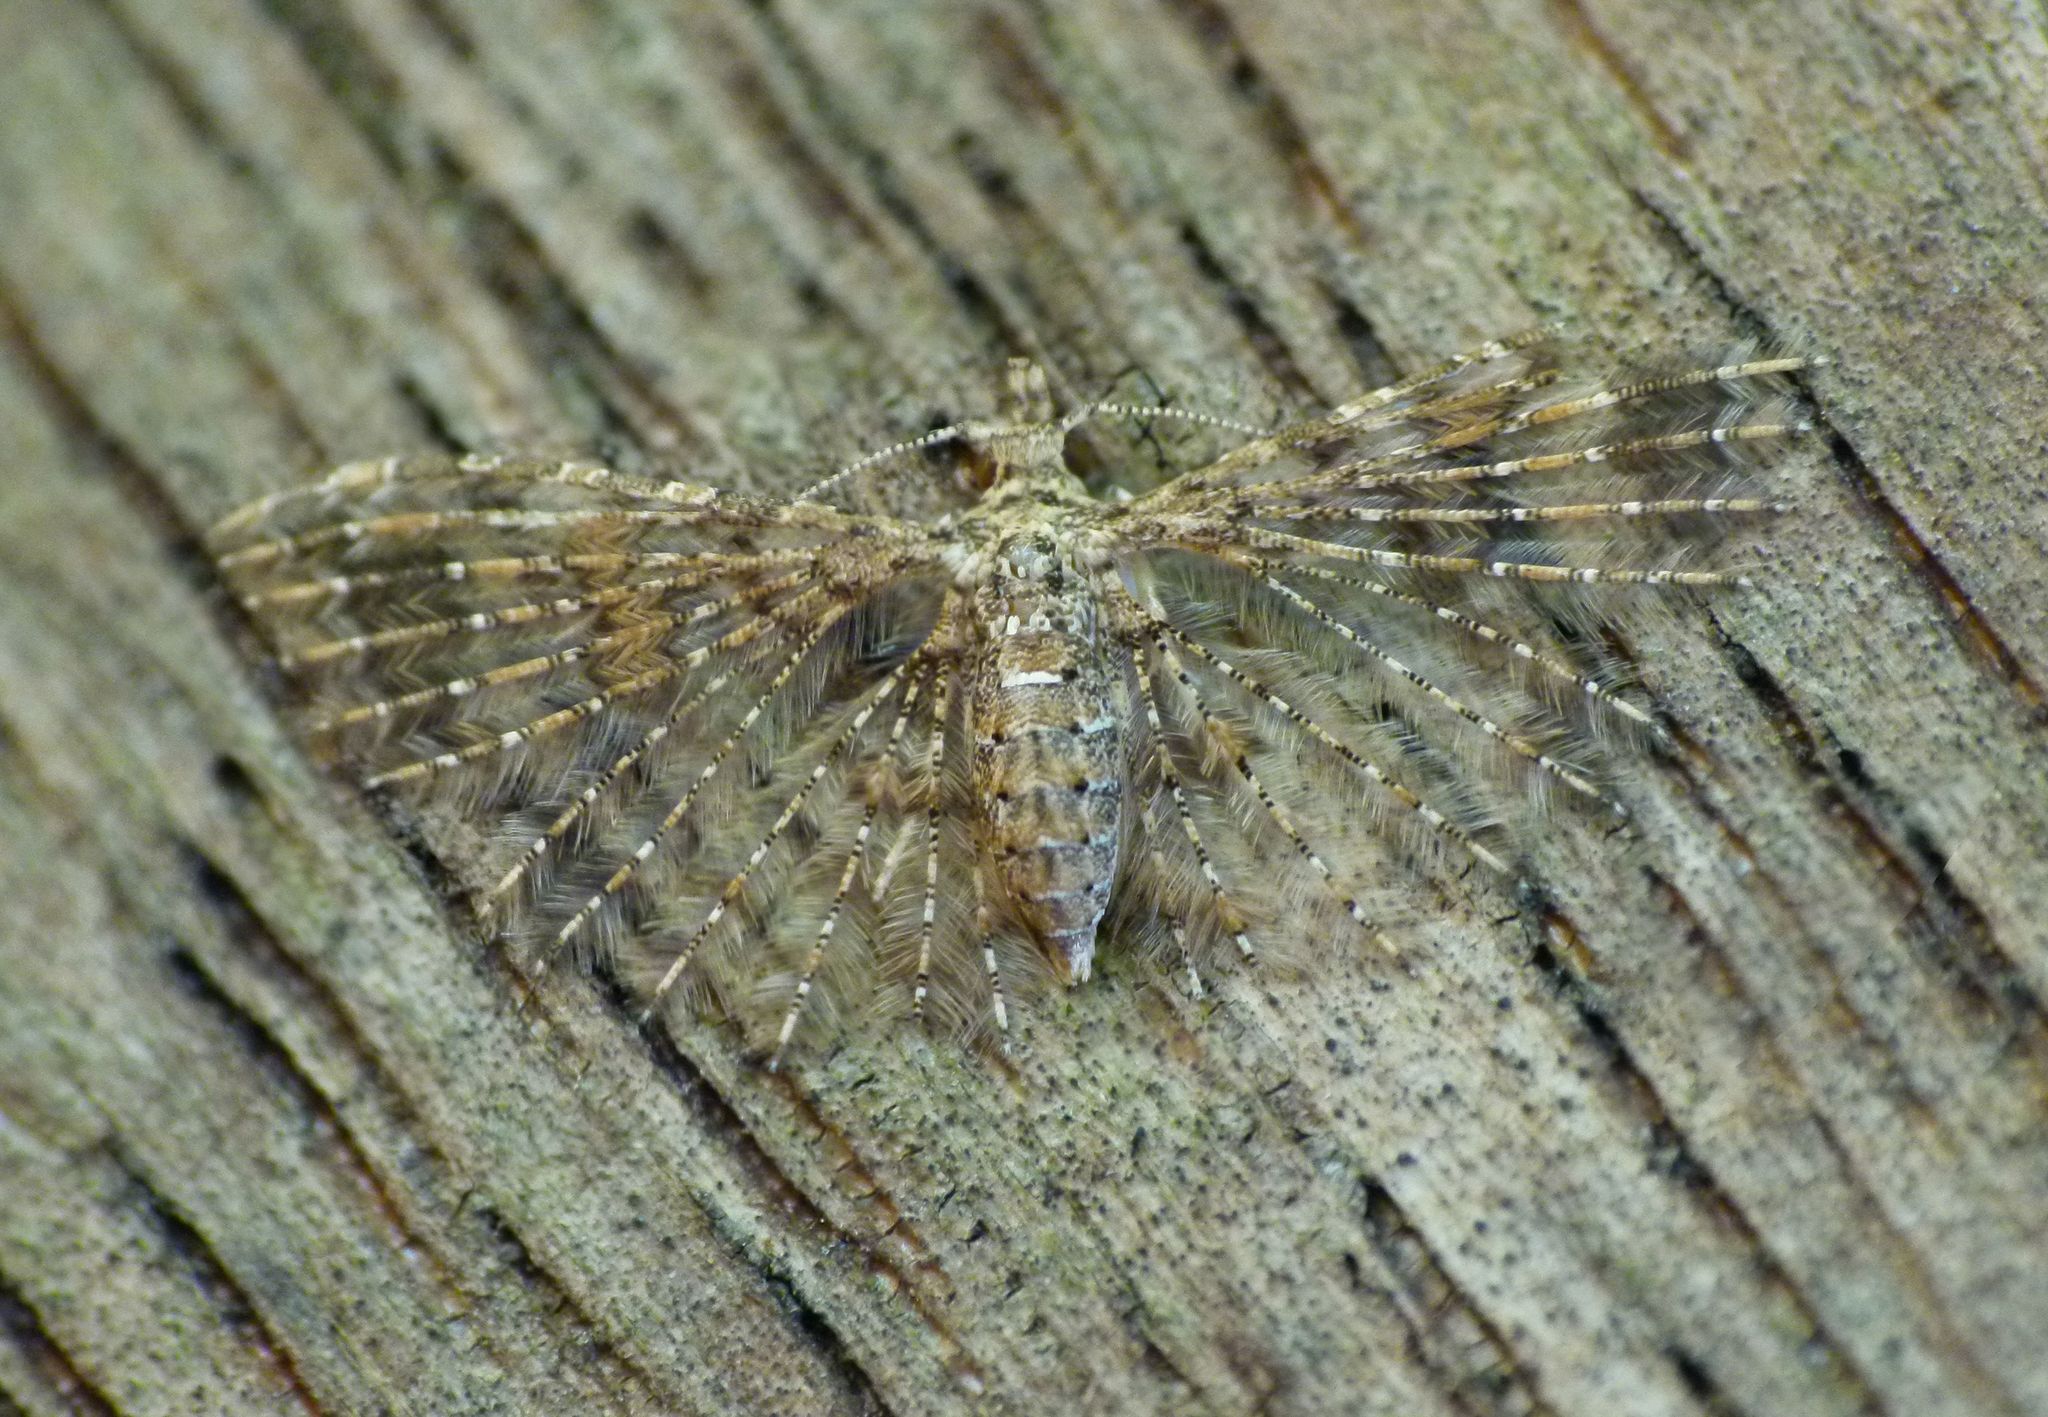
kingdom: Animalia
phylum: Arthropoda
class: Insecta
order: Lepidoptera
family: Alucitidae
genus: Alucita
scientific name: Alucita phricodes
